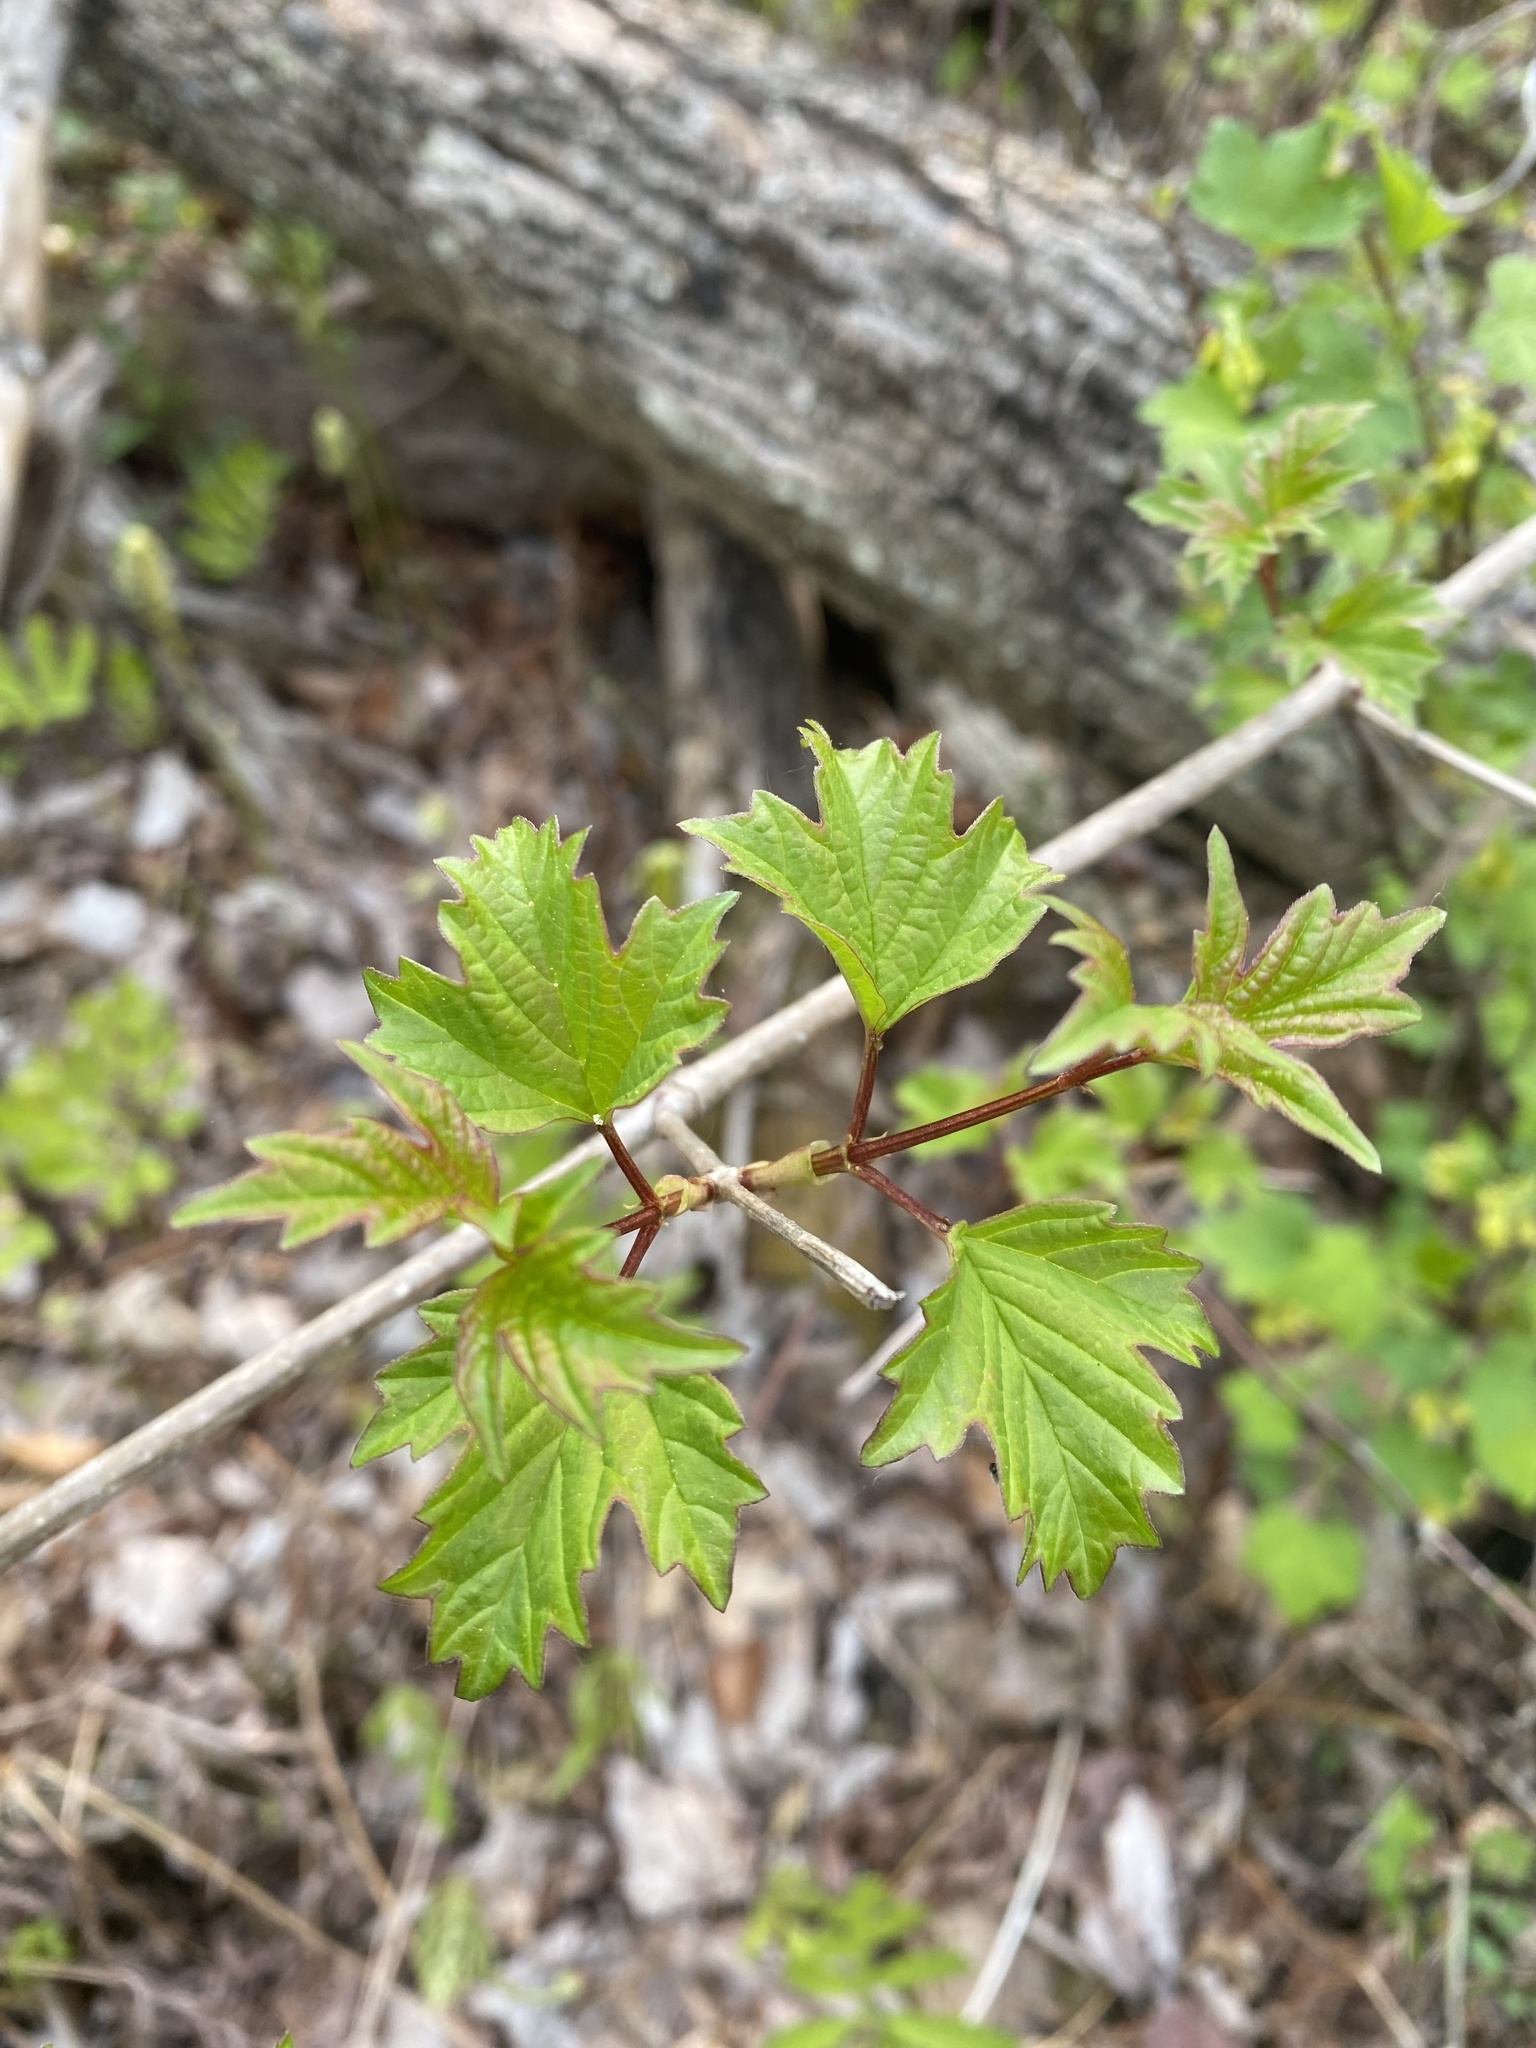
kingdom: Plantae
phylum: Tracheophyta
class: Magnoliopsida
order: Dipsacales
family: Viburnaceae
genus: Viburnum
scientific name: Viburnum opulus
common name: Guelder-rose
